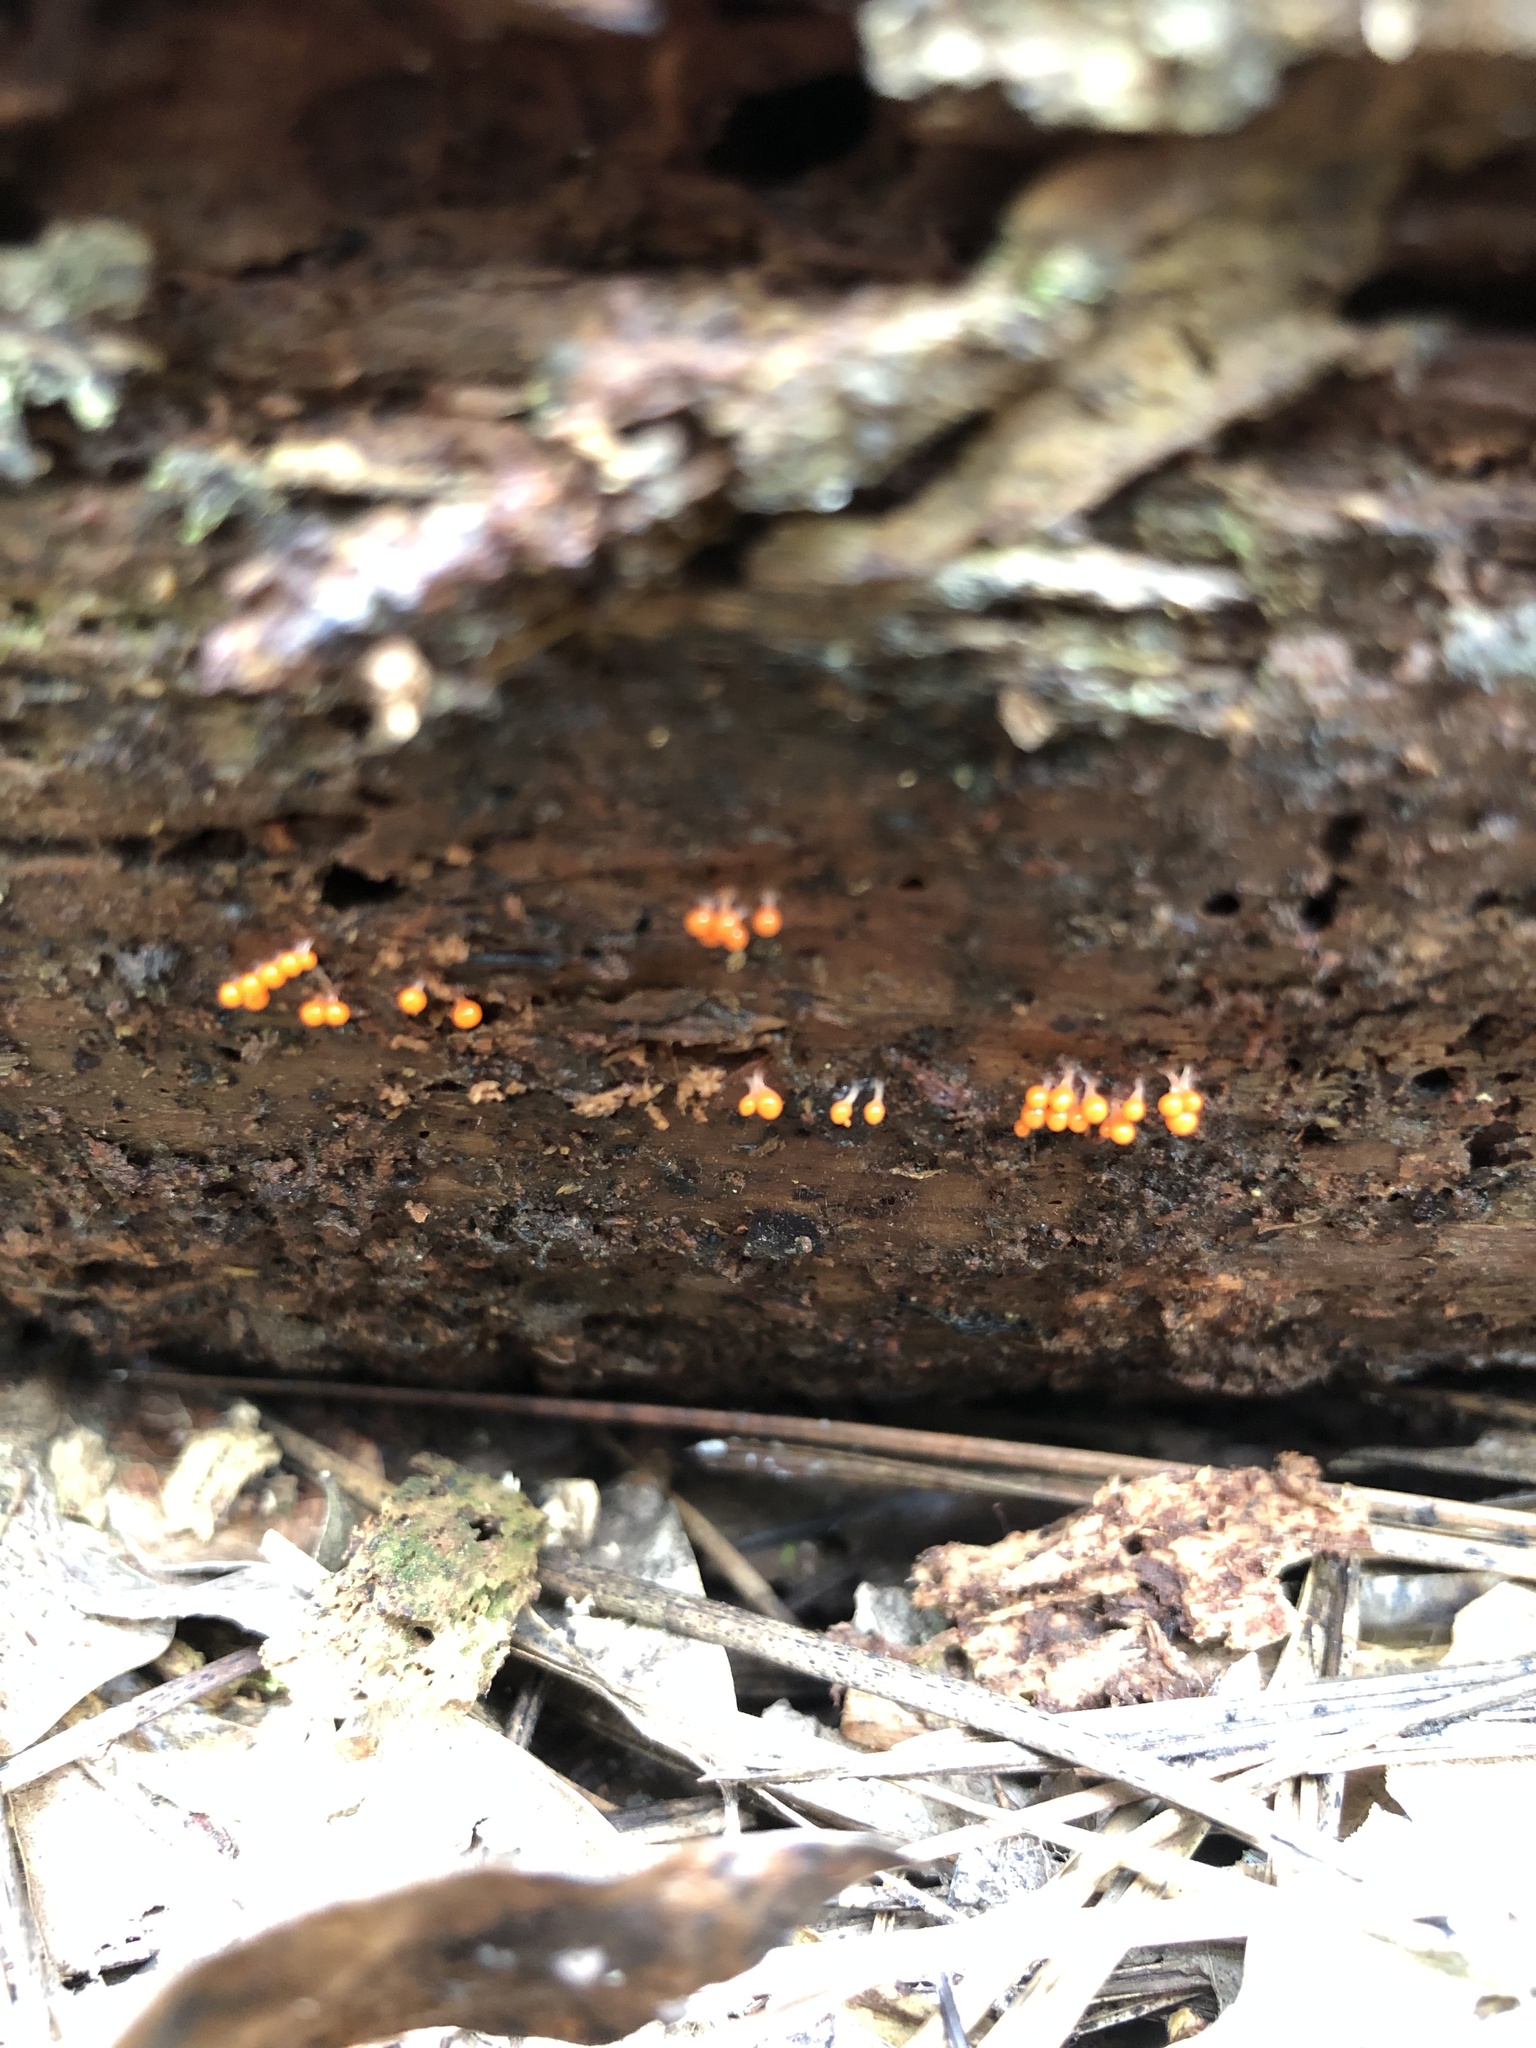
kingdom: Protozoa
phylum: Mycetozoa
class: Myxomycetes
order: Trichiales
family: Arcyriaceae
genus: Hemitrichia
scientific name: Hemitrichia calyculata
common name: Push pin slime mold
